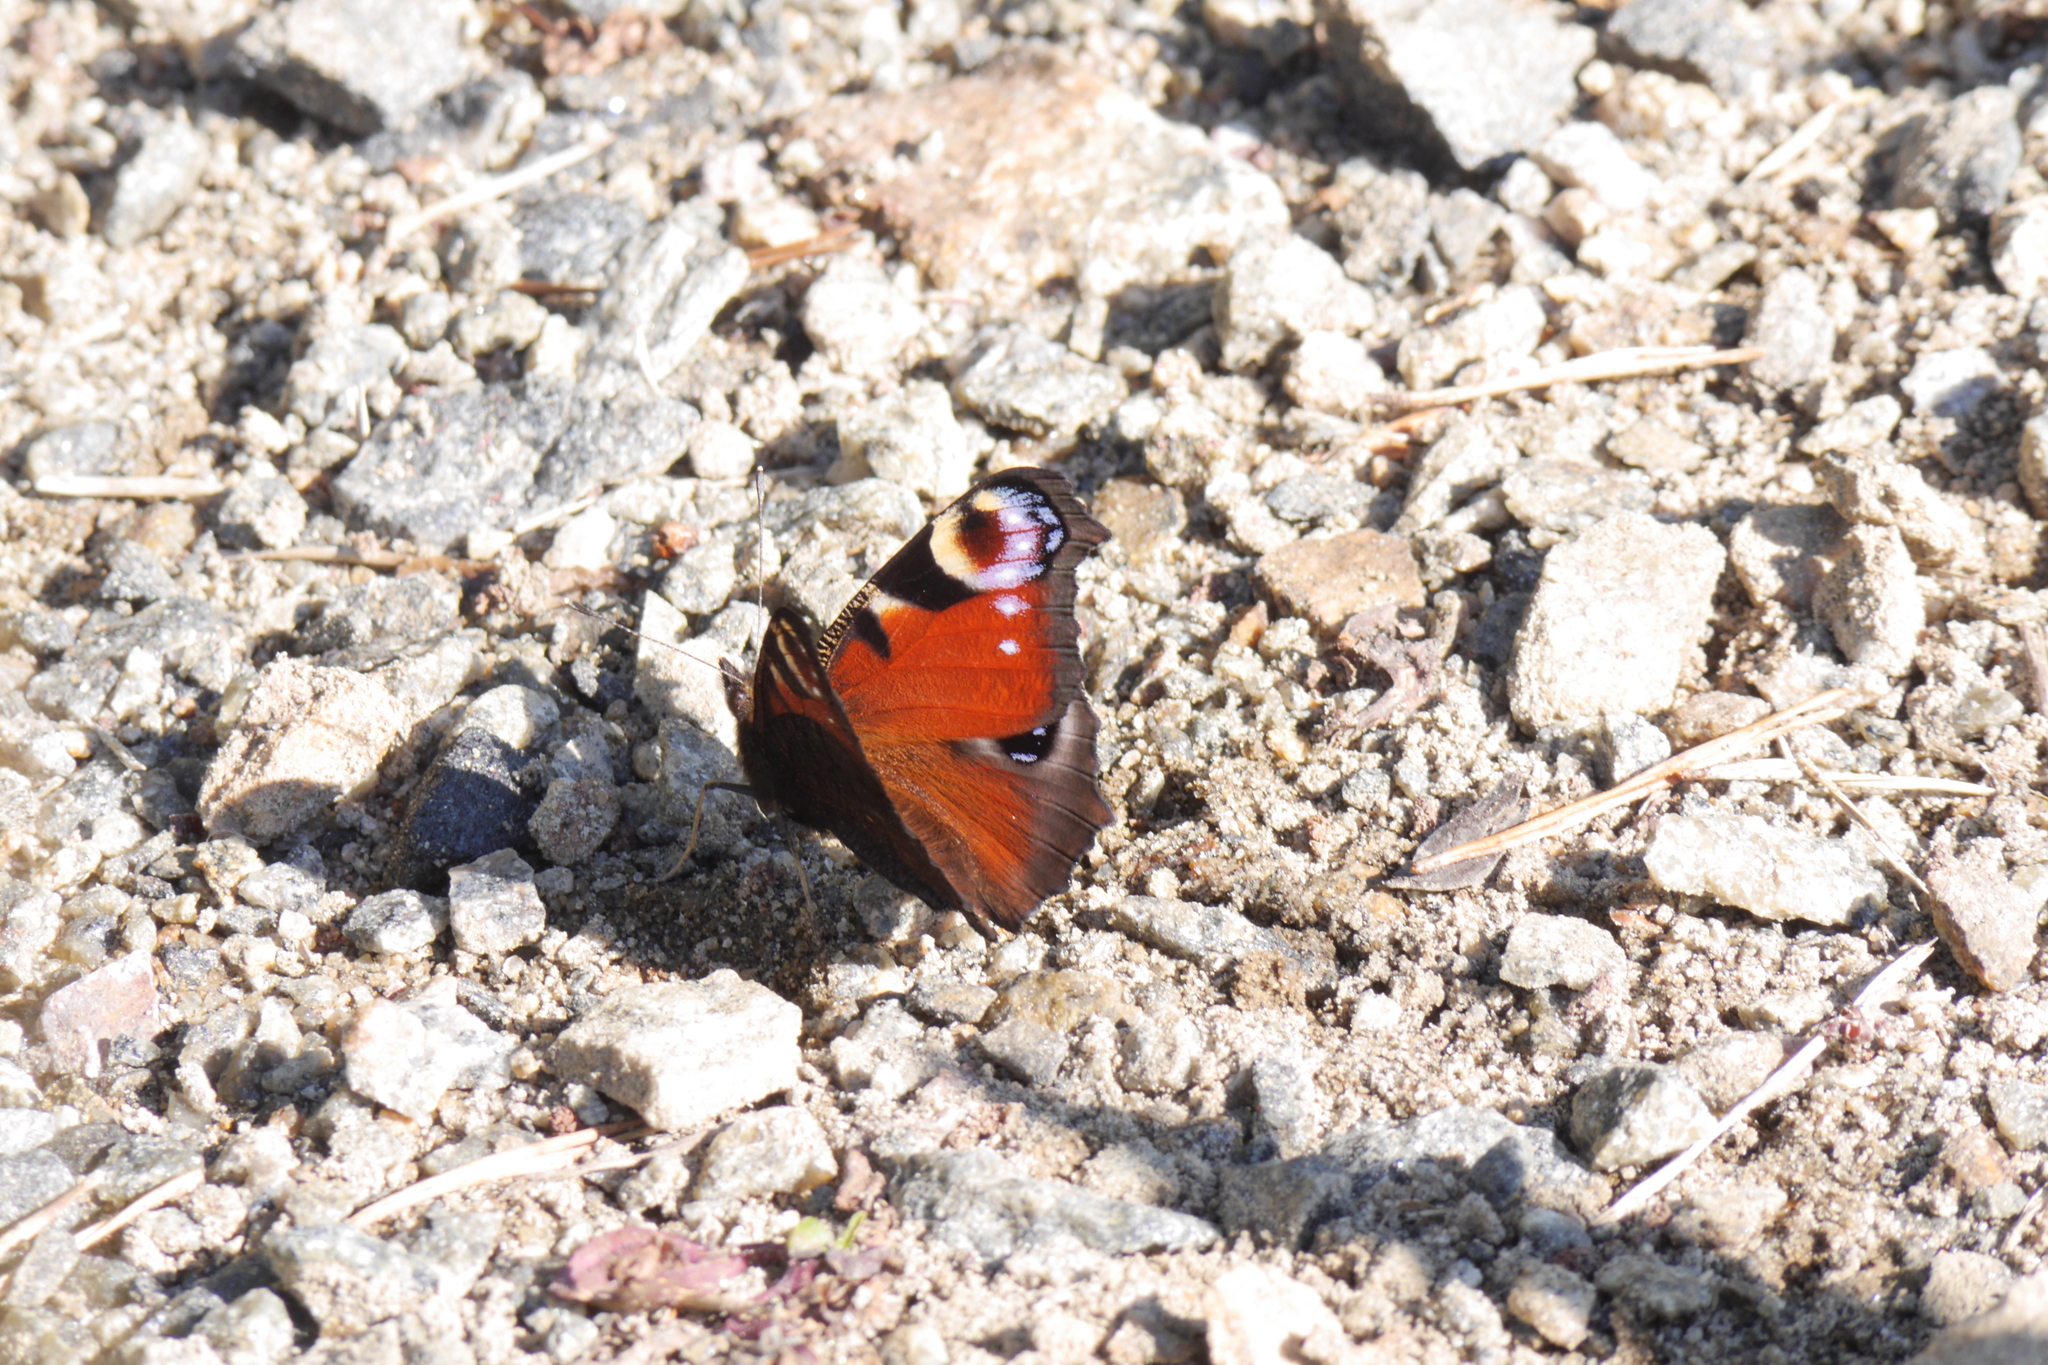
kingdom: Animalia
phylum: Arthropoda
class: Insecta
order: Lepidoptera
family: Nymphalidae
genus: Aglais
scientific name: Aglais io
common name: Peacock
